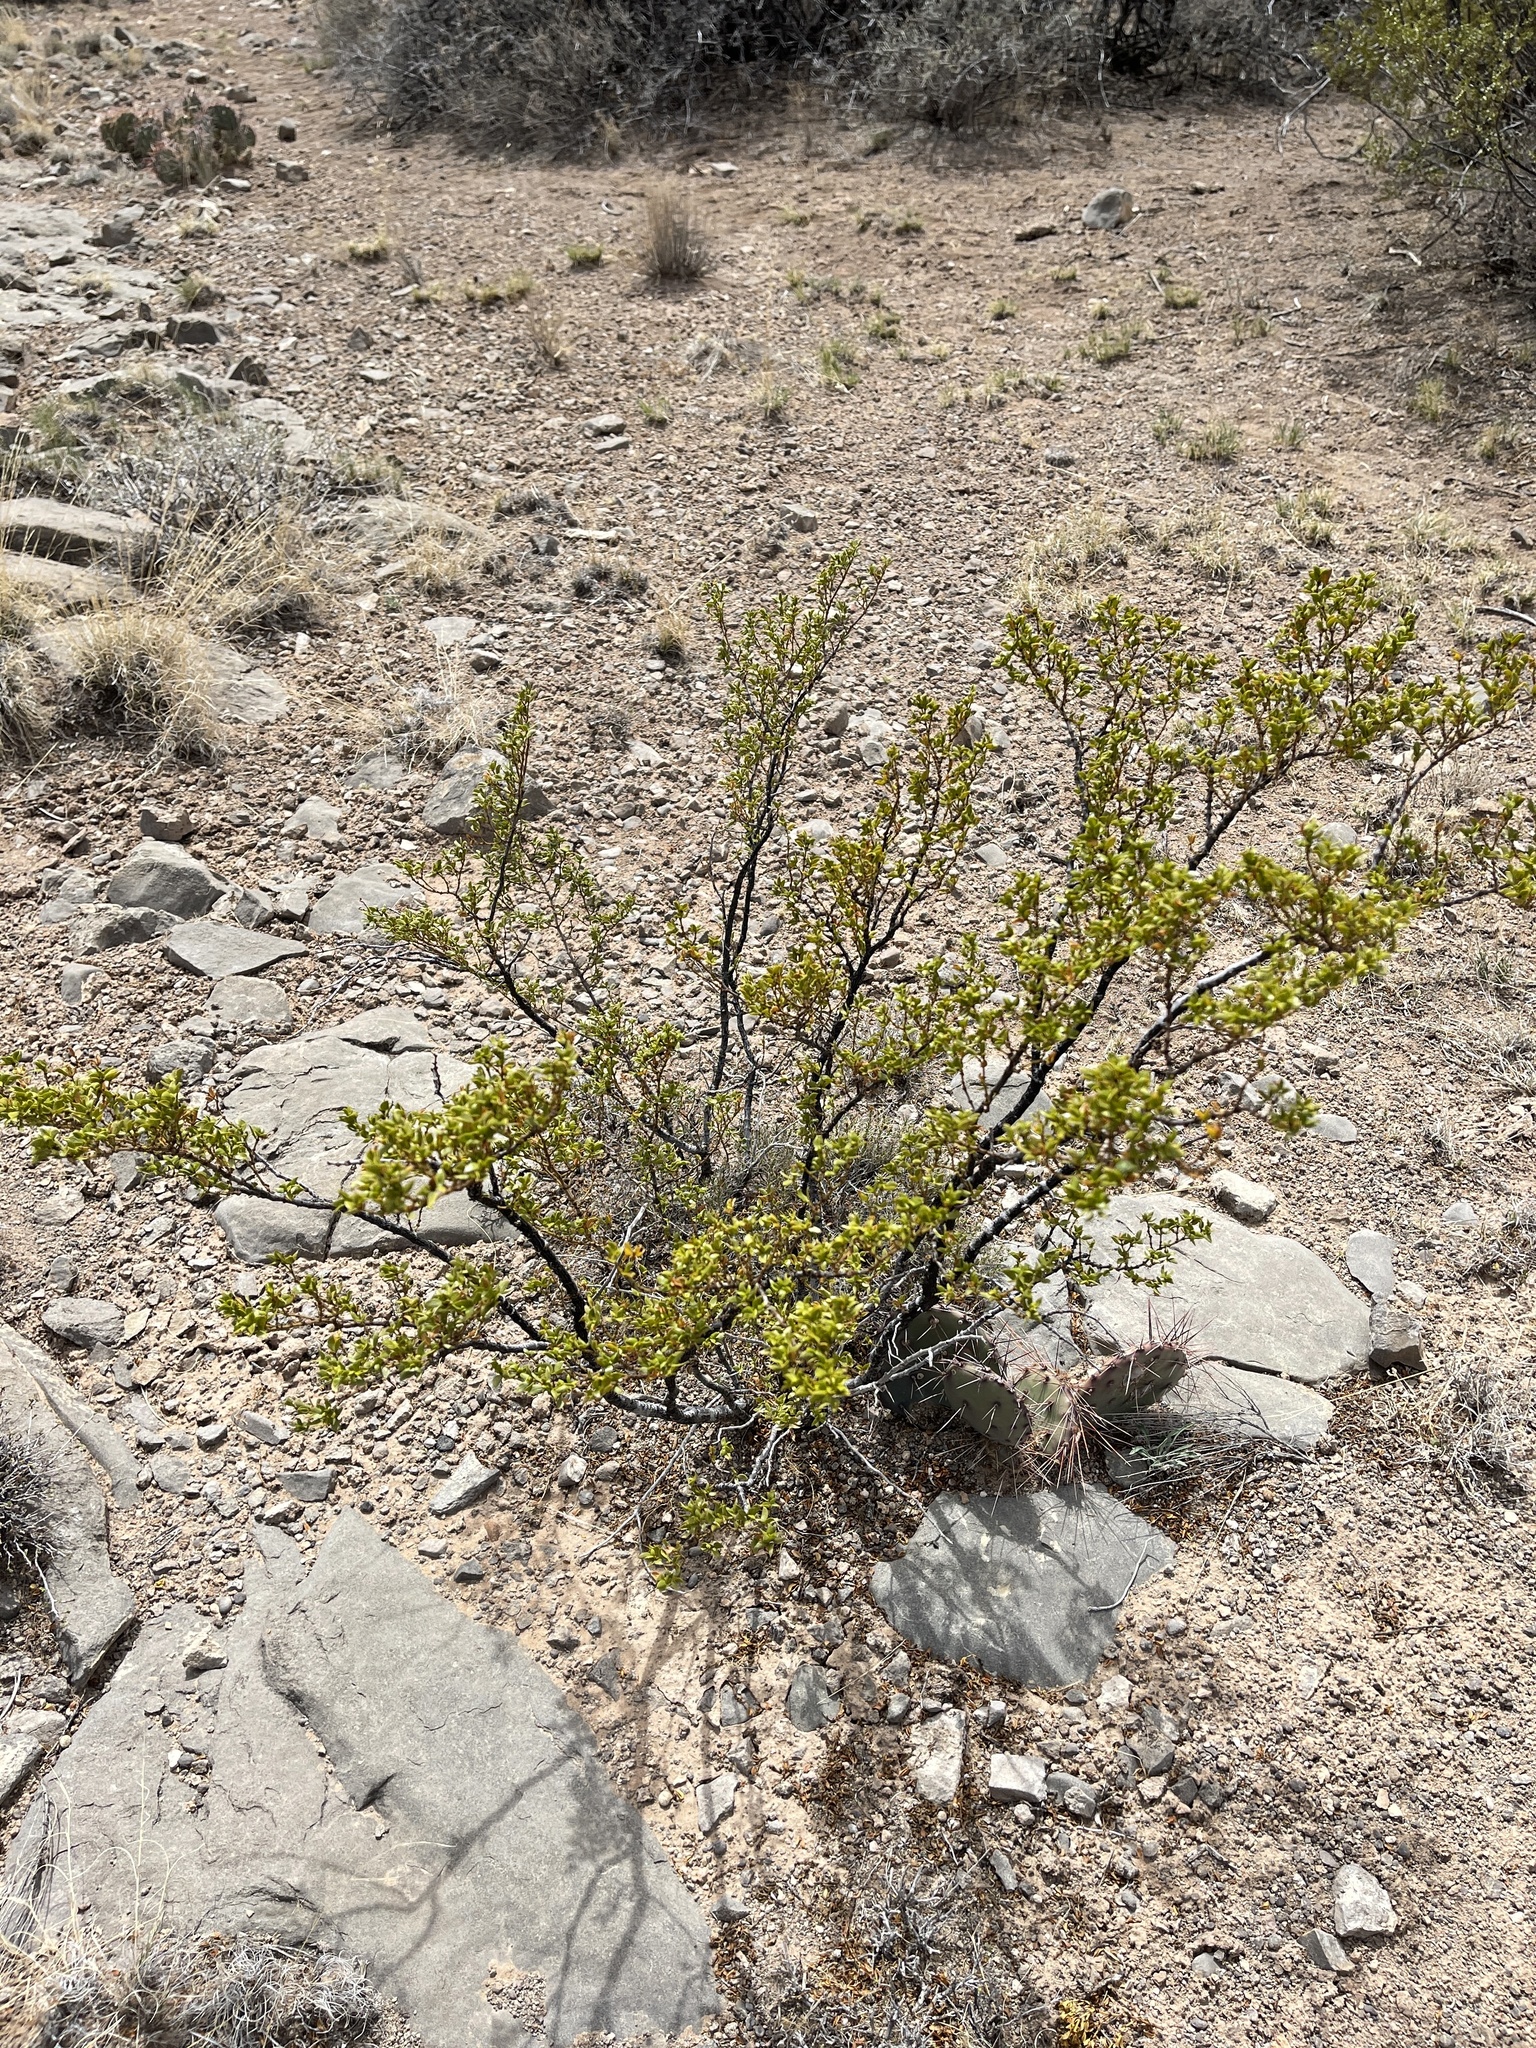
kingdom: Plantae
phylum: Tracheophyta
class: Magnoliopsida
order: Zygophyllales
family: Zygophyllaceae
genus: Larrea
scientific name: Larrea tridentata
